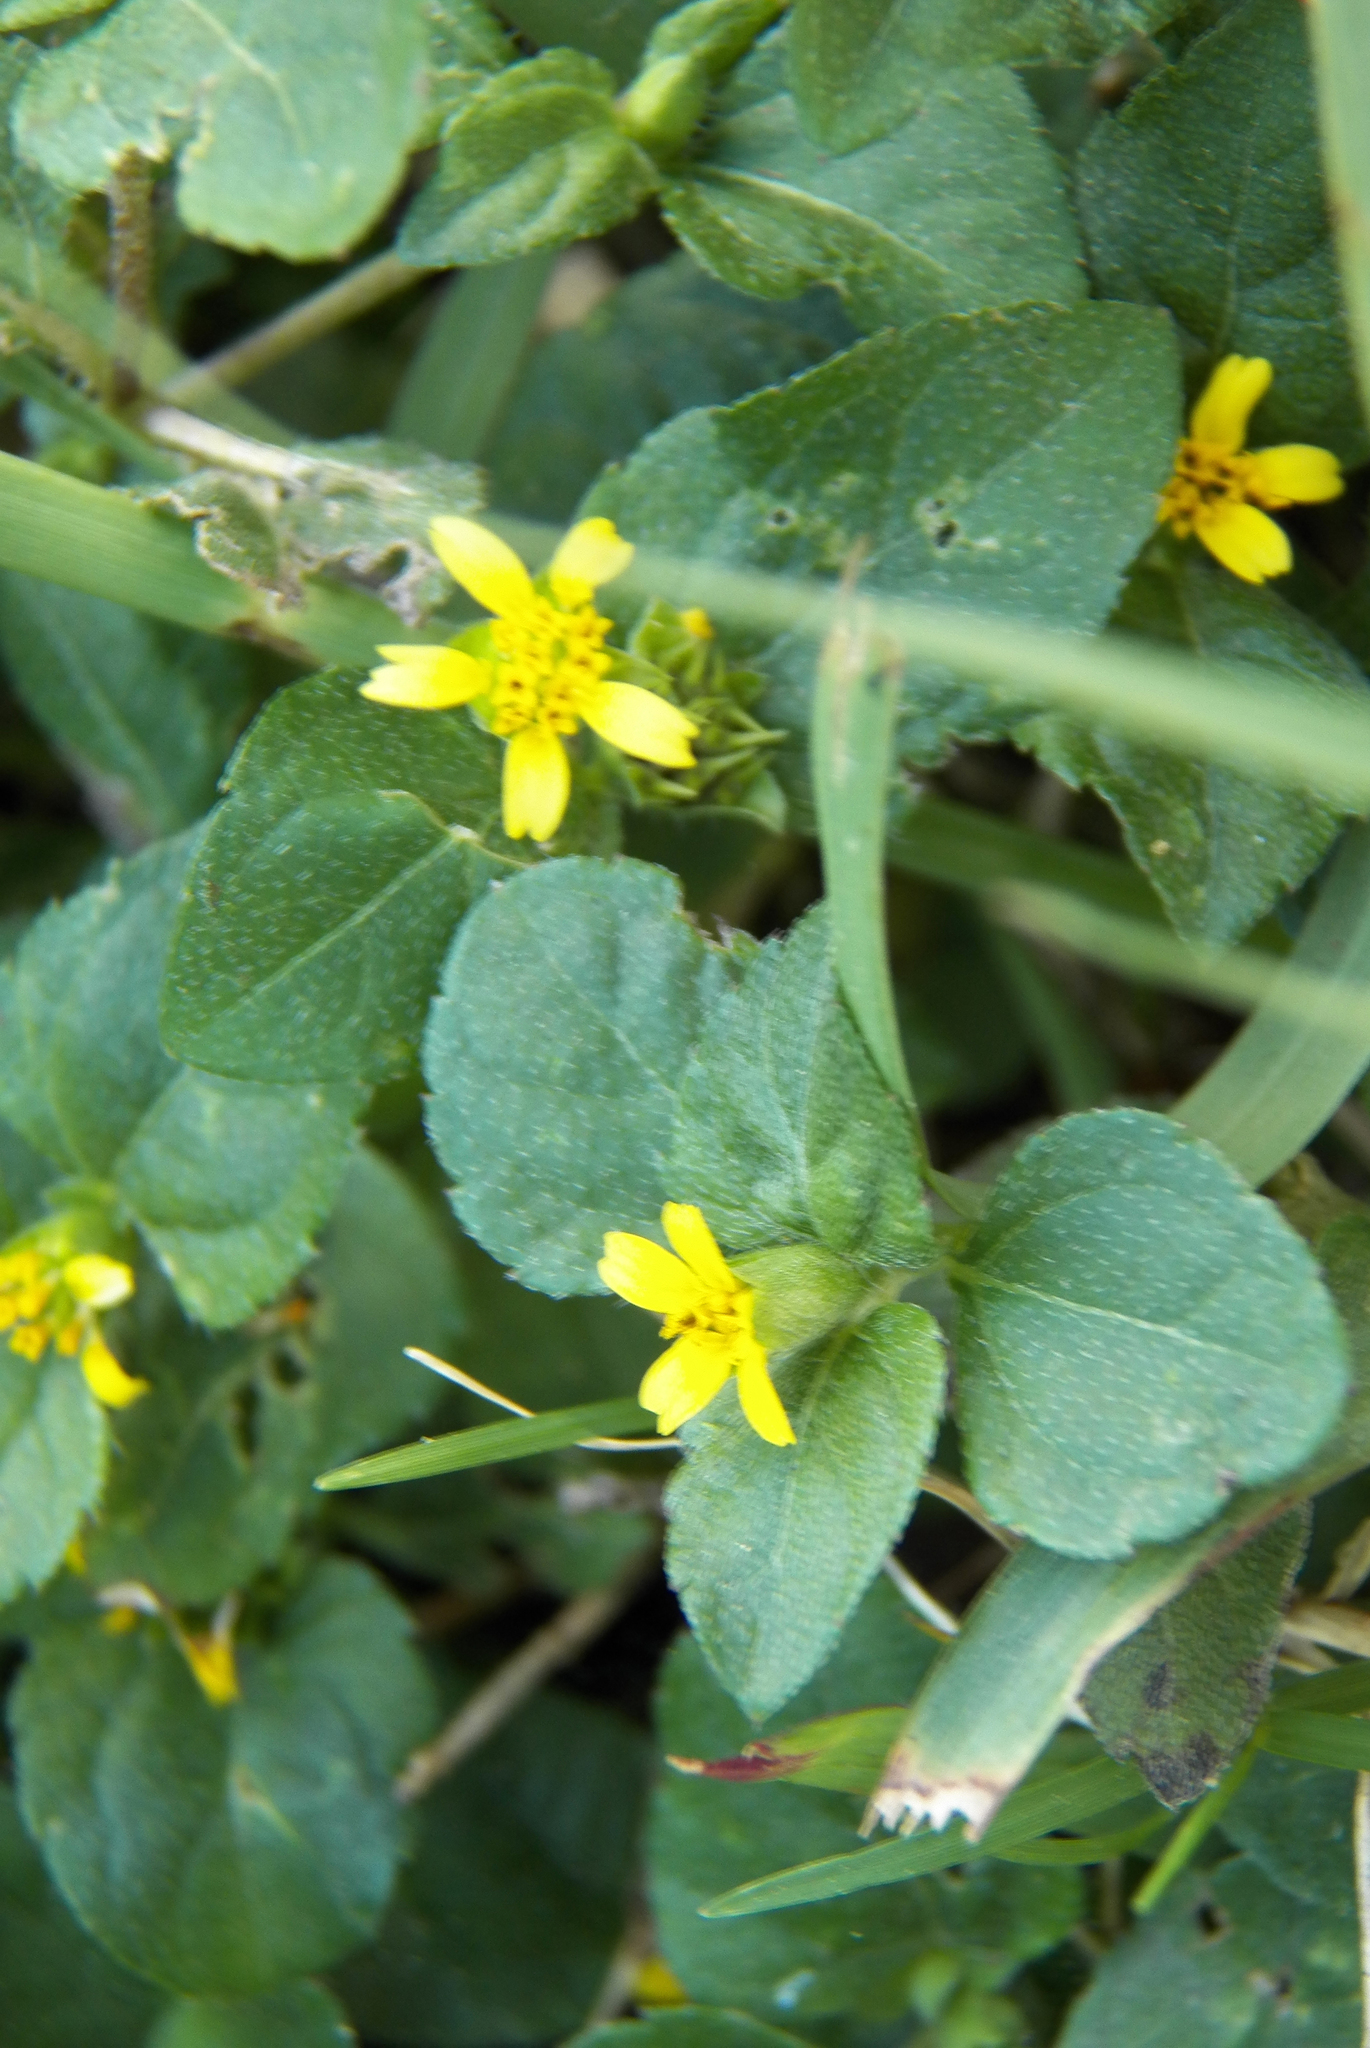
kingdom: Plantae
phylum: Tracheophyta
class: Magnoliopsida
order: Asterales
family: Asteraceae
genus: Calyptocarpus
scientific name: Calyptocarpus vialis
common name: Straggler daisy
